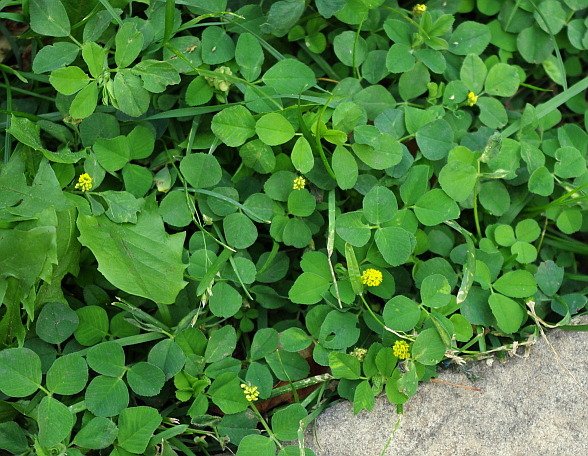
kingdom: Plantae
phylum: Tracheophyta
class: Magnoliopsida
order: Fabales
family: Fabaceae
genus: Medicago
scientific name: Medicago lupulina
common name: Black medick
